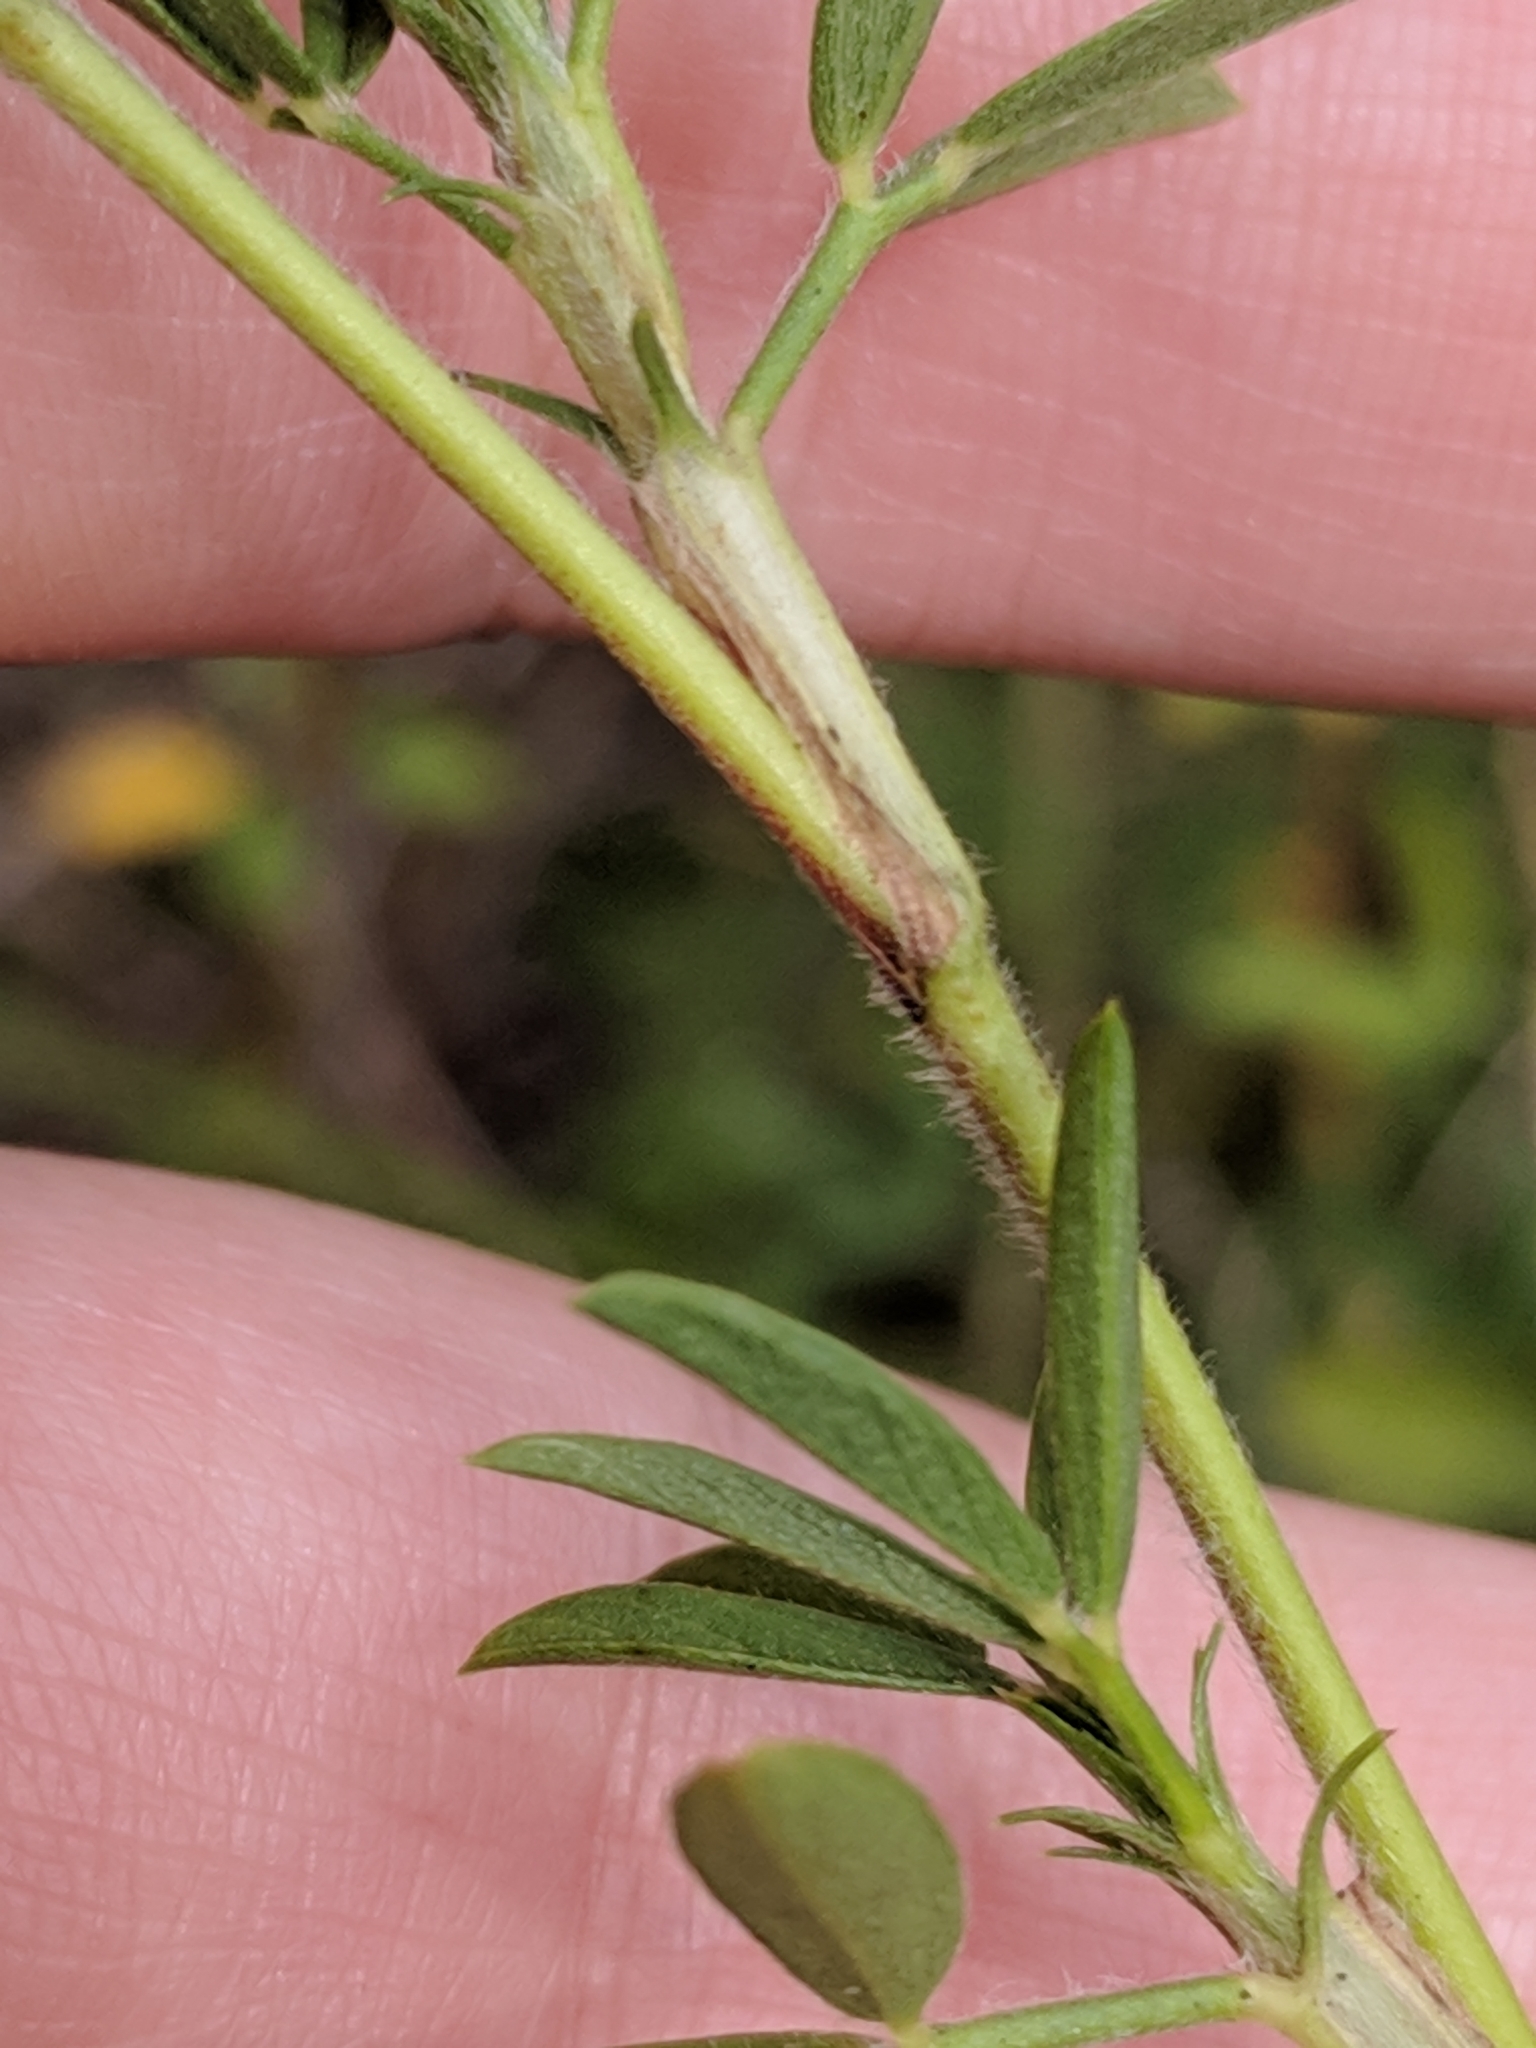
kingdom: Plantae
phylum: Tracheophyta
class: Magnoliopsida
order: Fabales
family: Fabaceae
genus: Stylosanthes
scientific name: Stylosanthes hamata
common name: Cheesytoes
